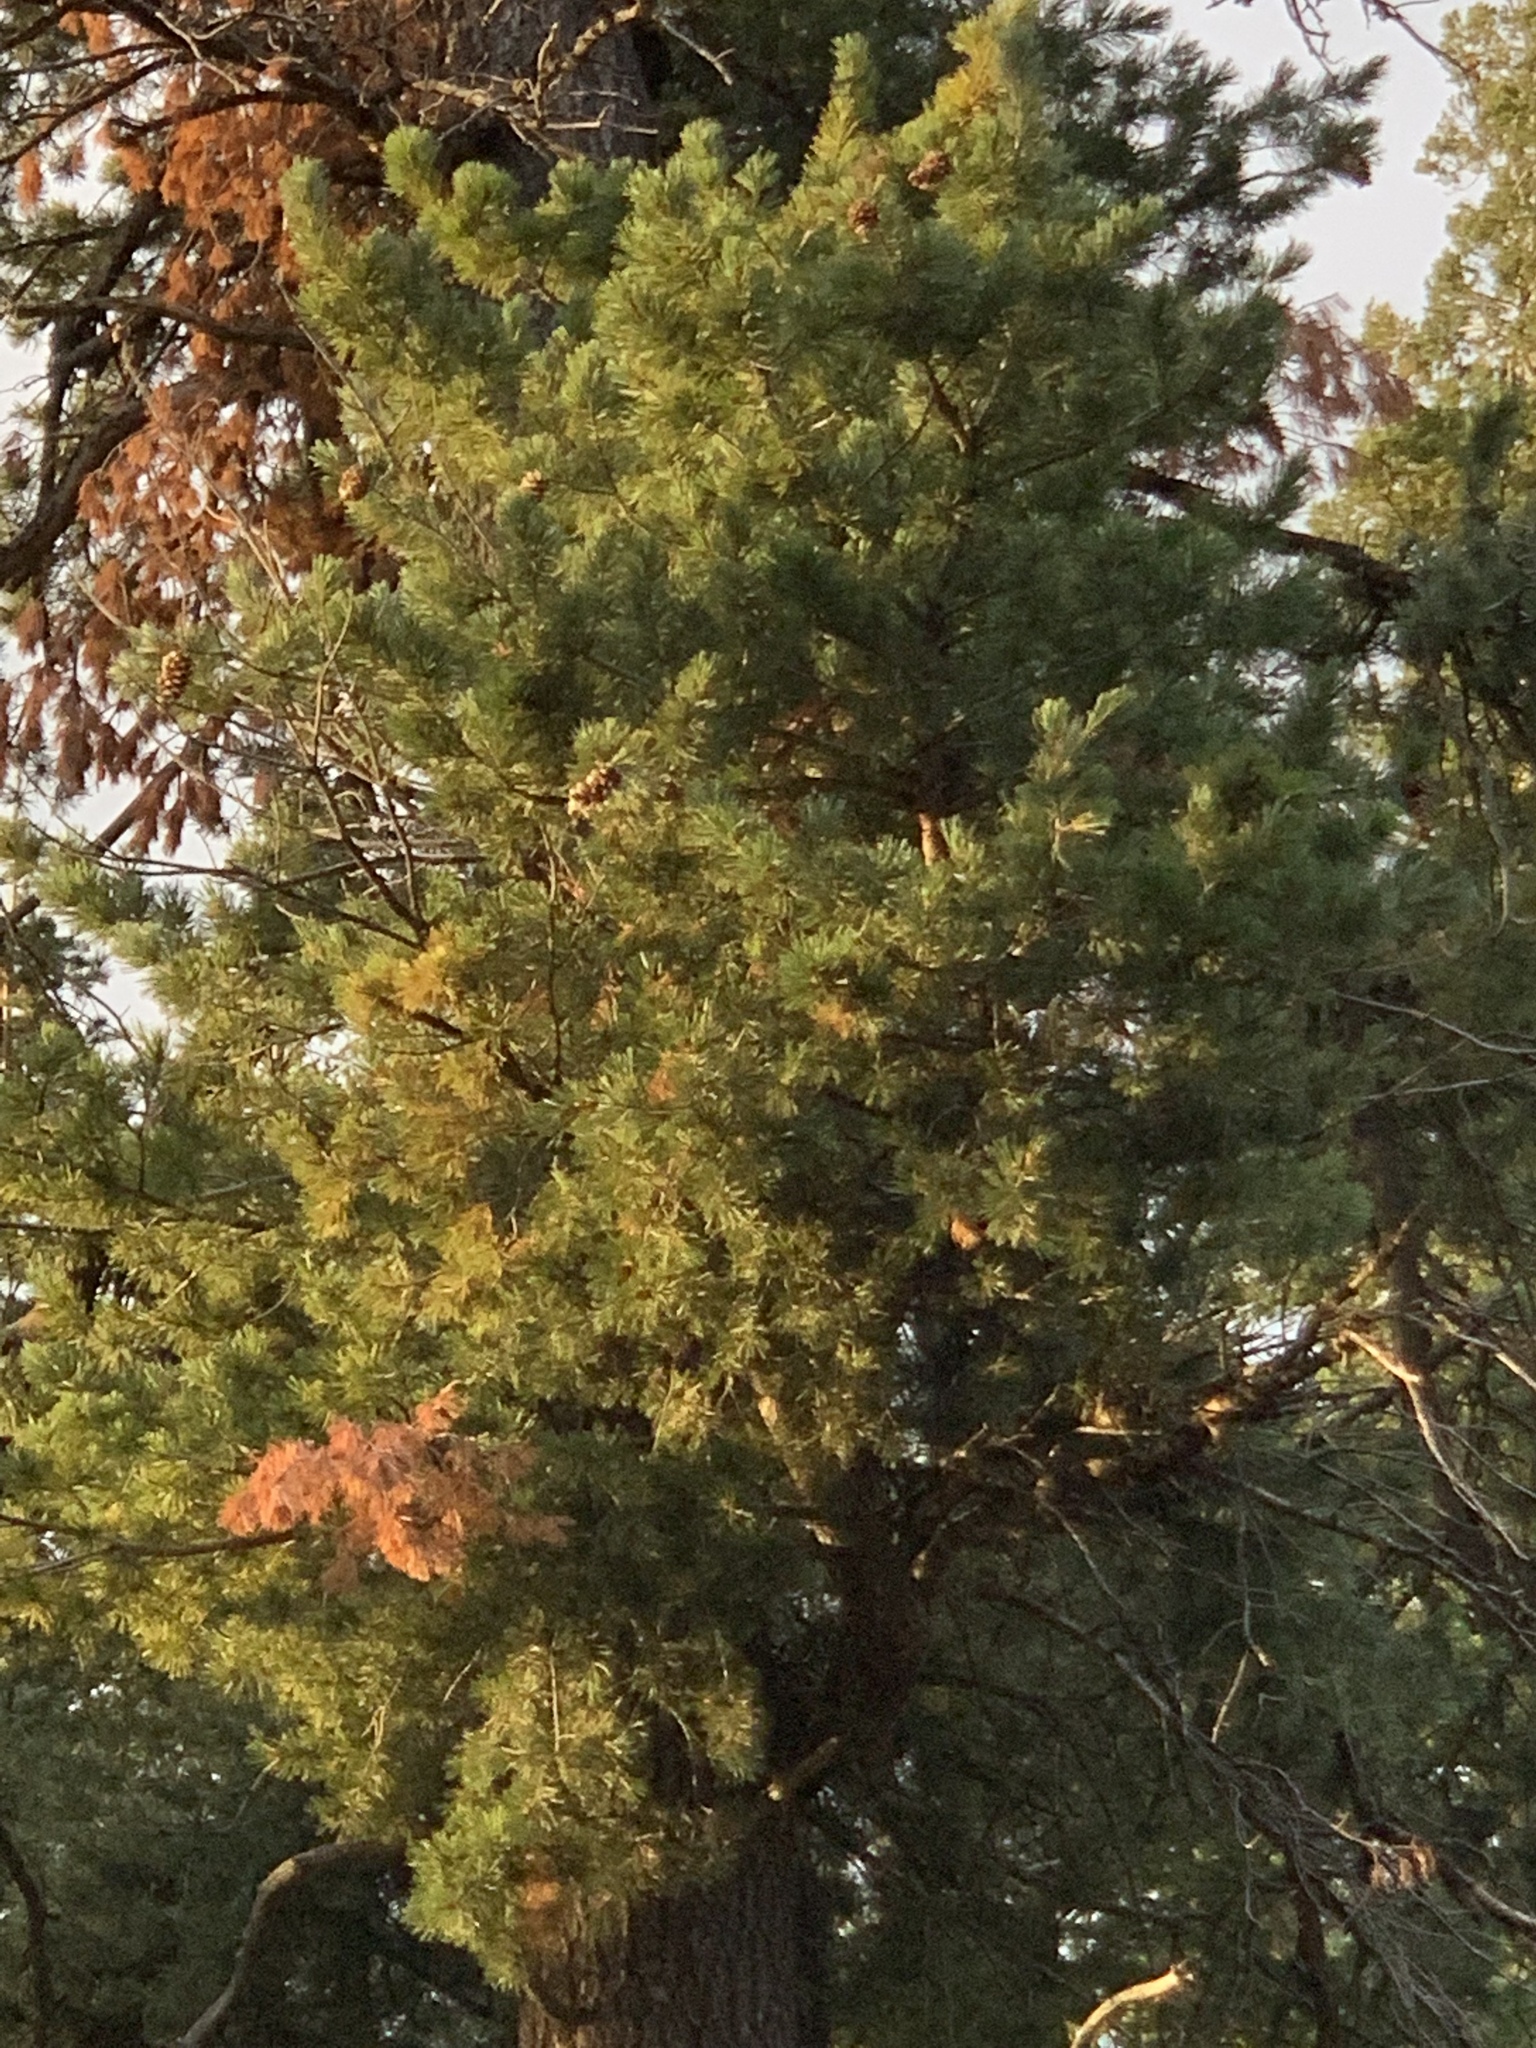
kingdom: Plantae
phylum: Tracheophyta
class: Pinopsida
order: Pinales
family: Pinaceae
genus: Pinus
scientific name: Pinus strobiformis
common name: Southwestern white pine
